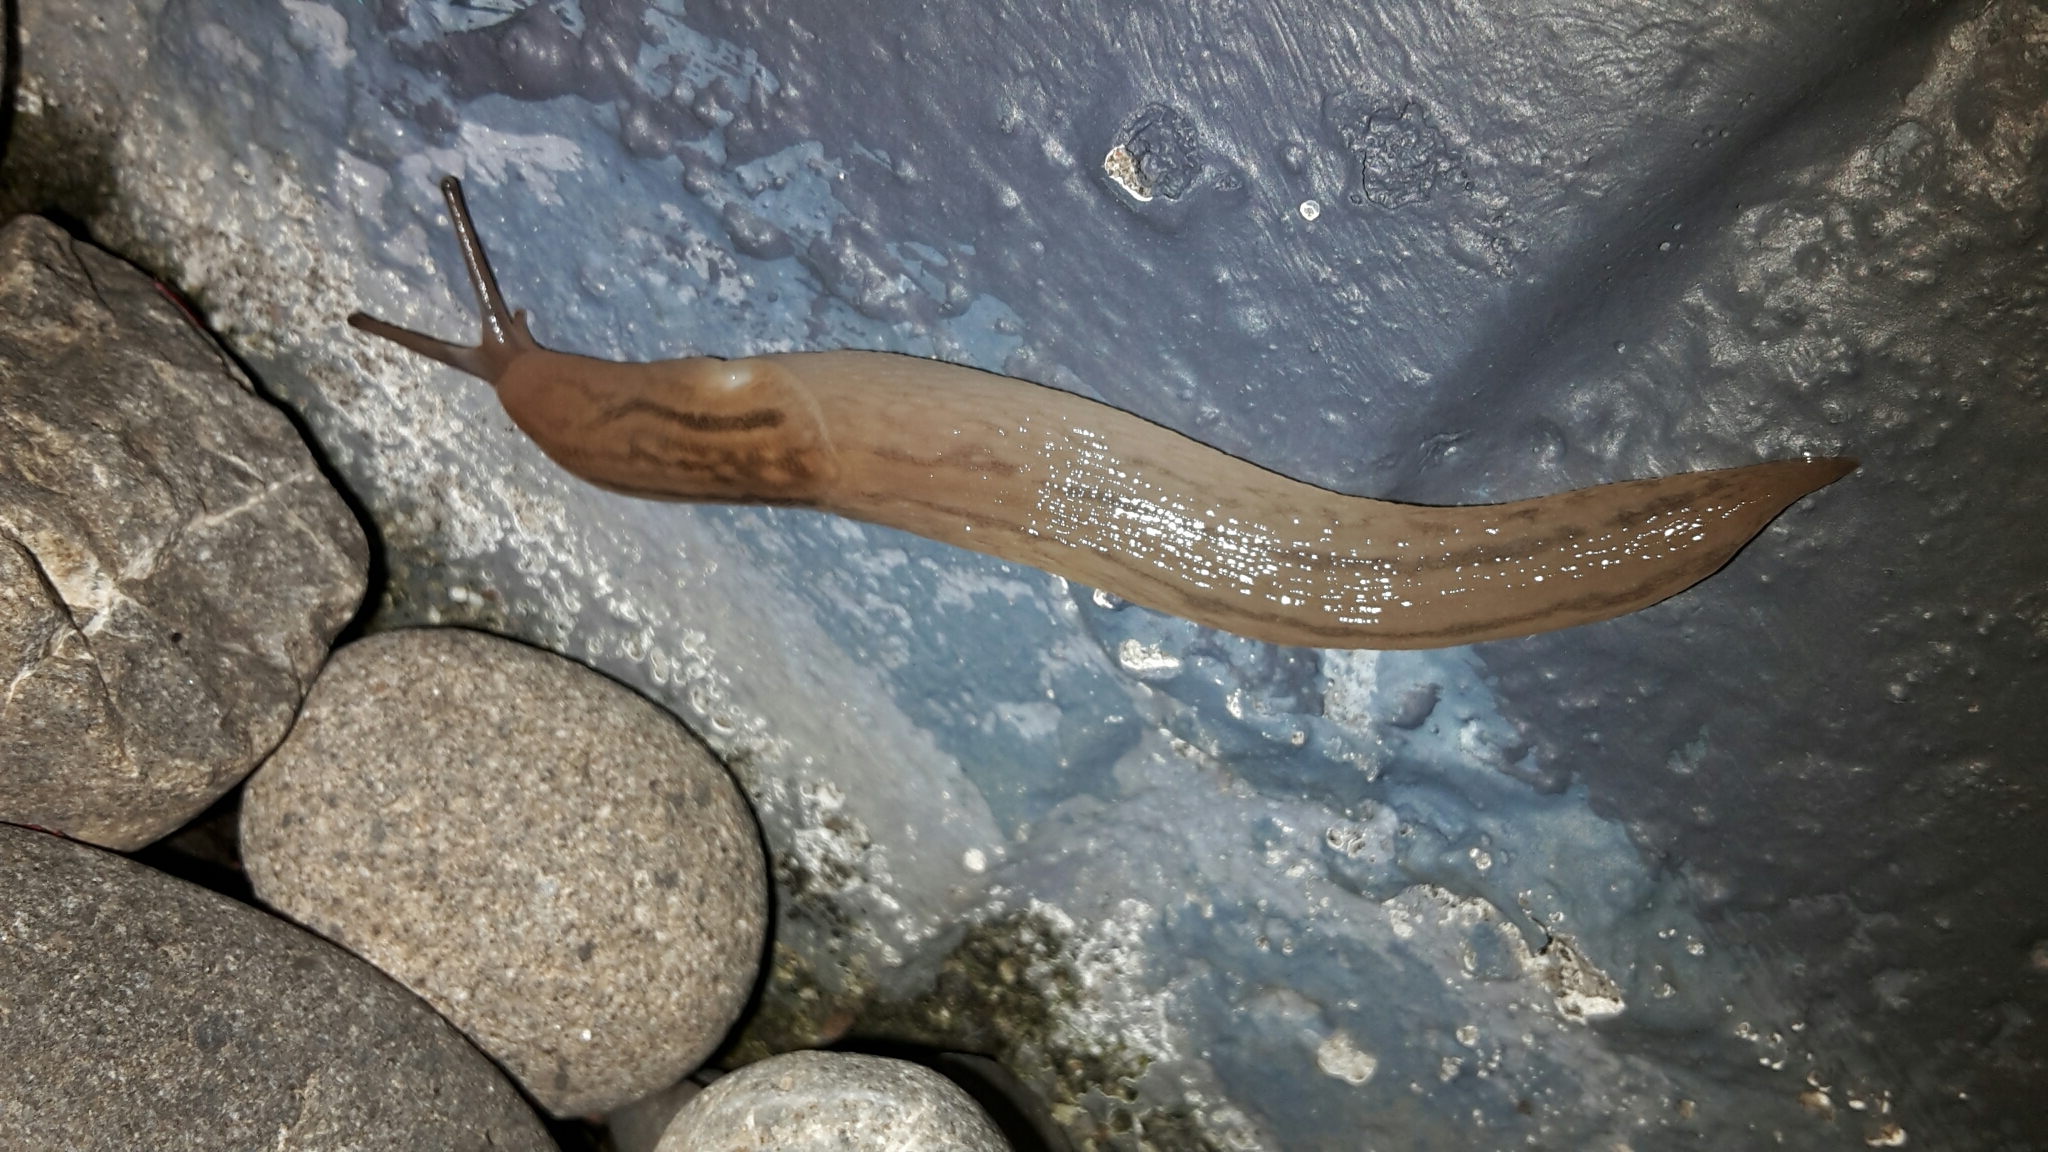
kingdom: Animalia
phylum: Mollusca
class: Gastropoda
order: Stylommatophora
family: Limacidae
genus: Ambigolimax
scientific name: Ambigolimax
